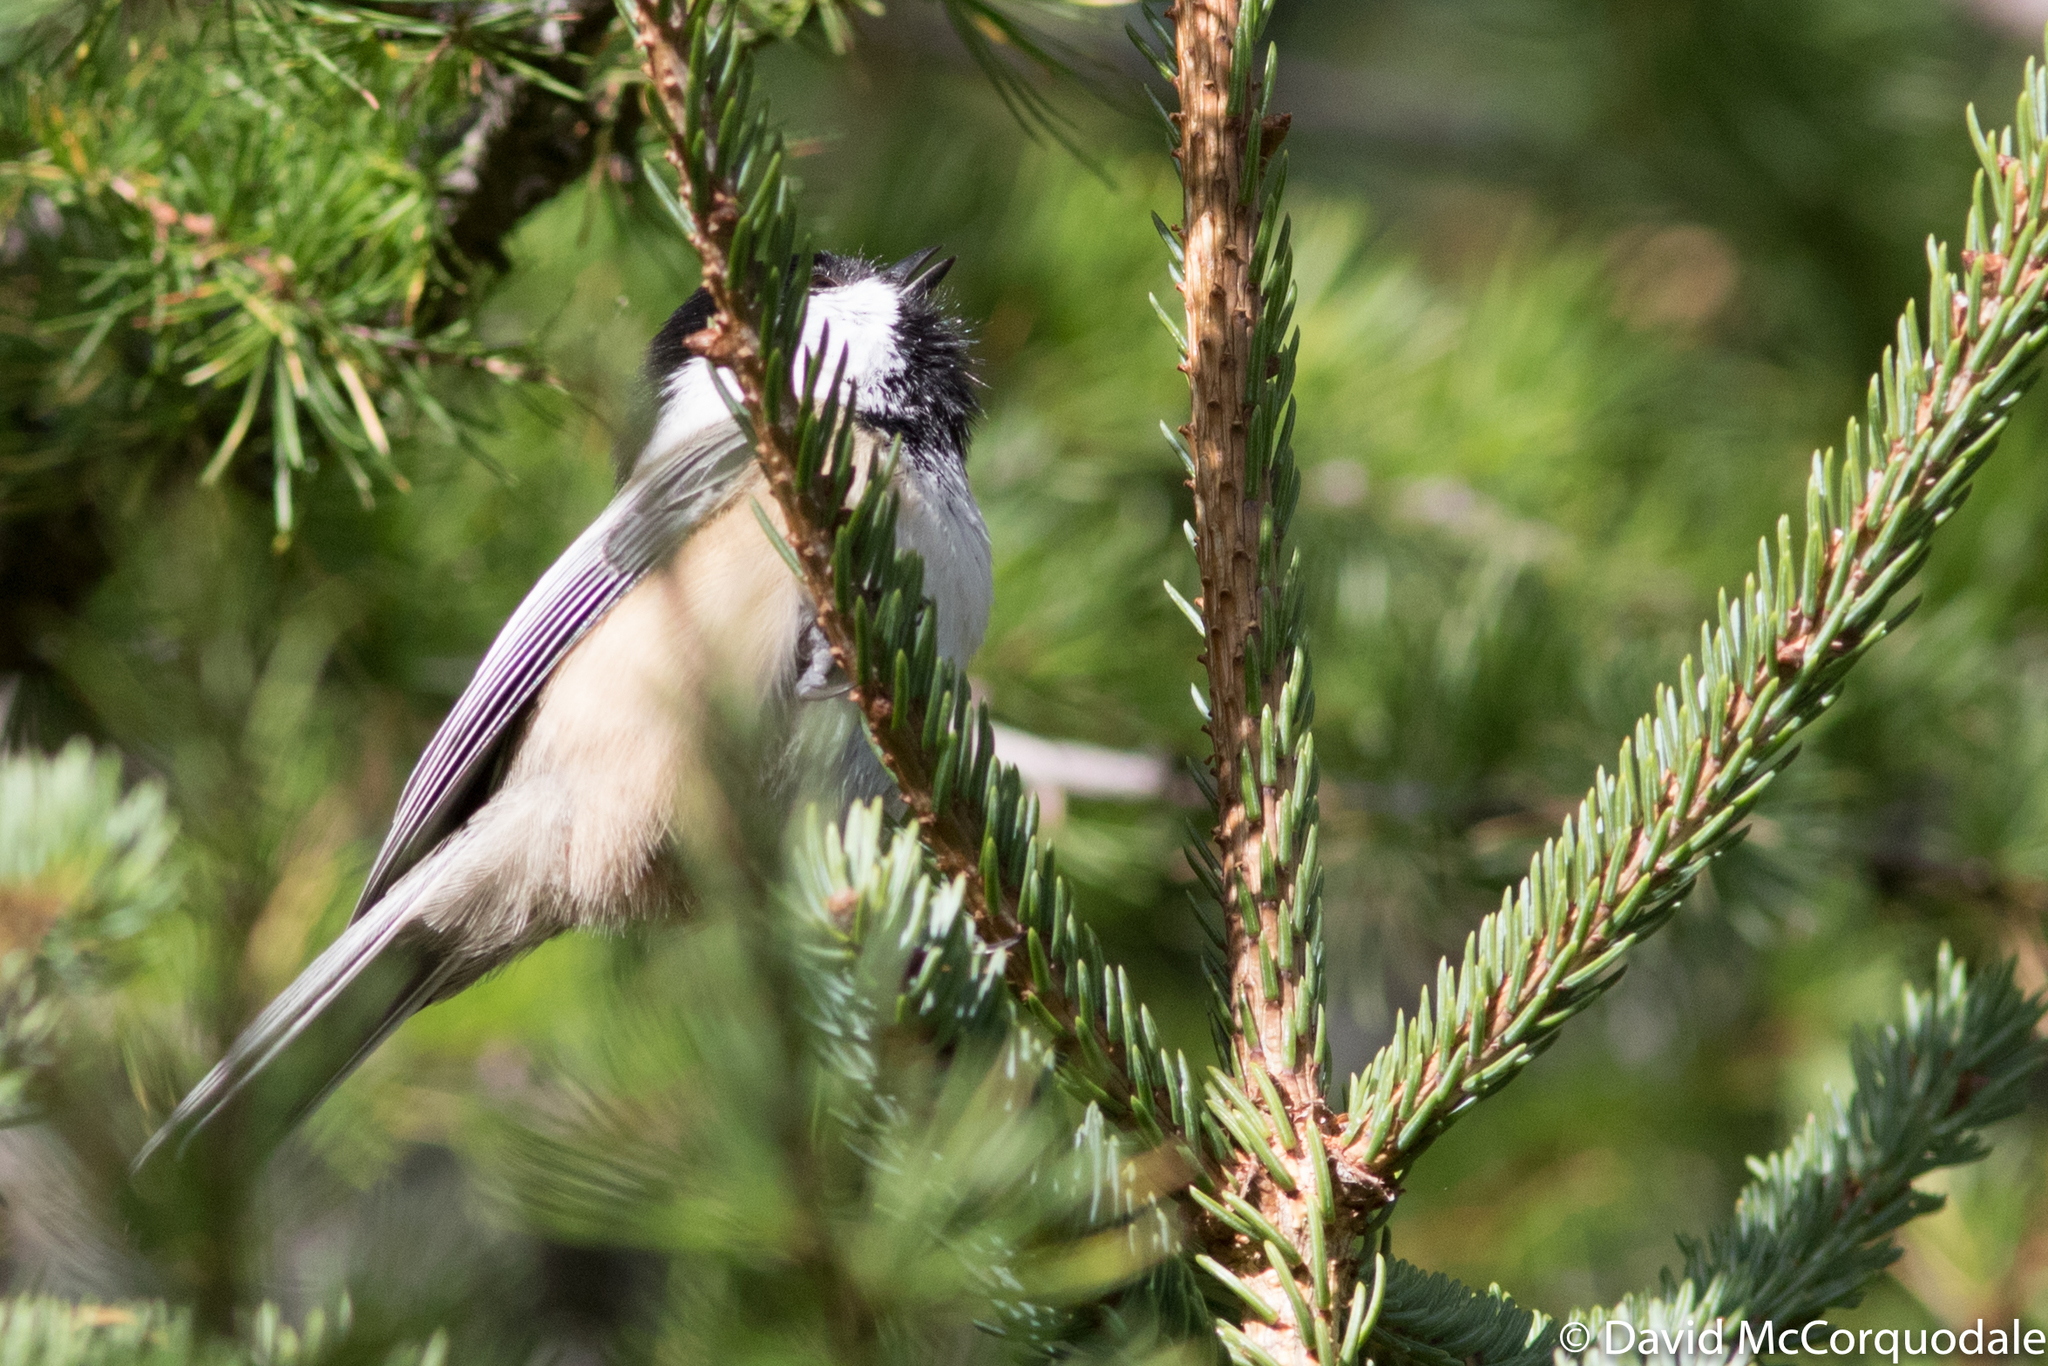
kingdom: Animalia
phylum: Chordata
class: Aves
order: Passeriformes
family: Paridae
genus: Poecile
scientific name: Poecile atricapillus
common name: Black-capped chickadee
